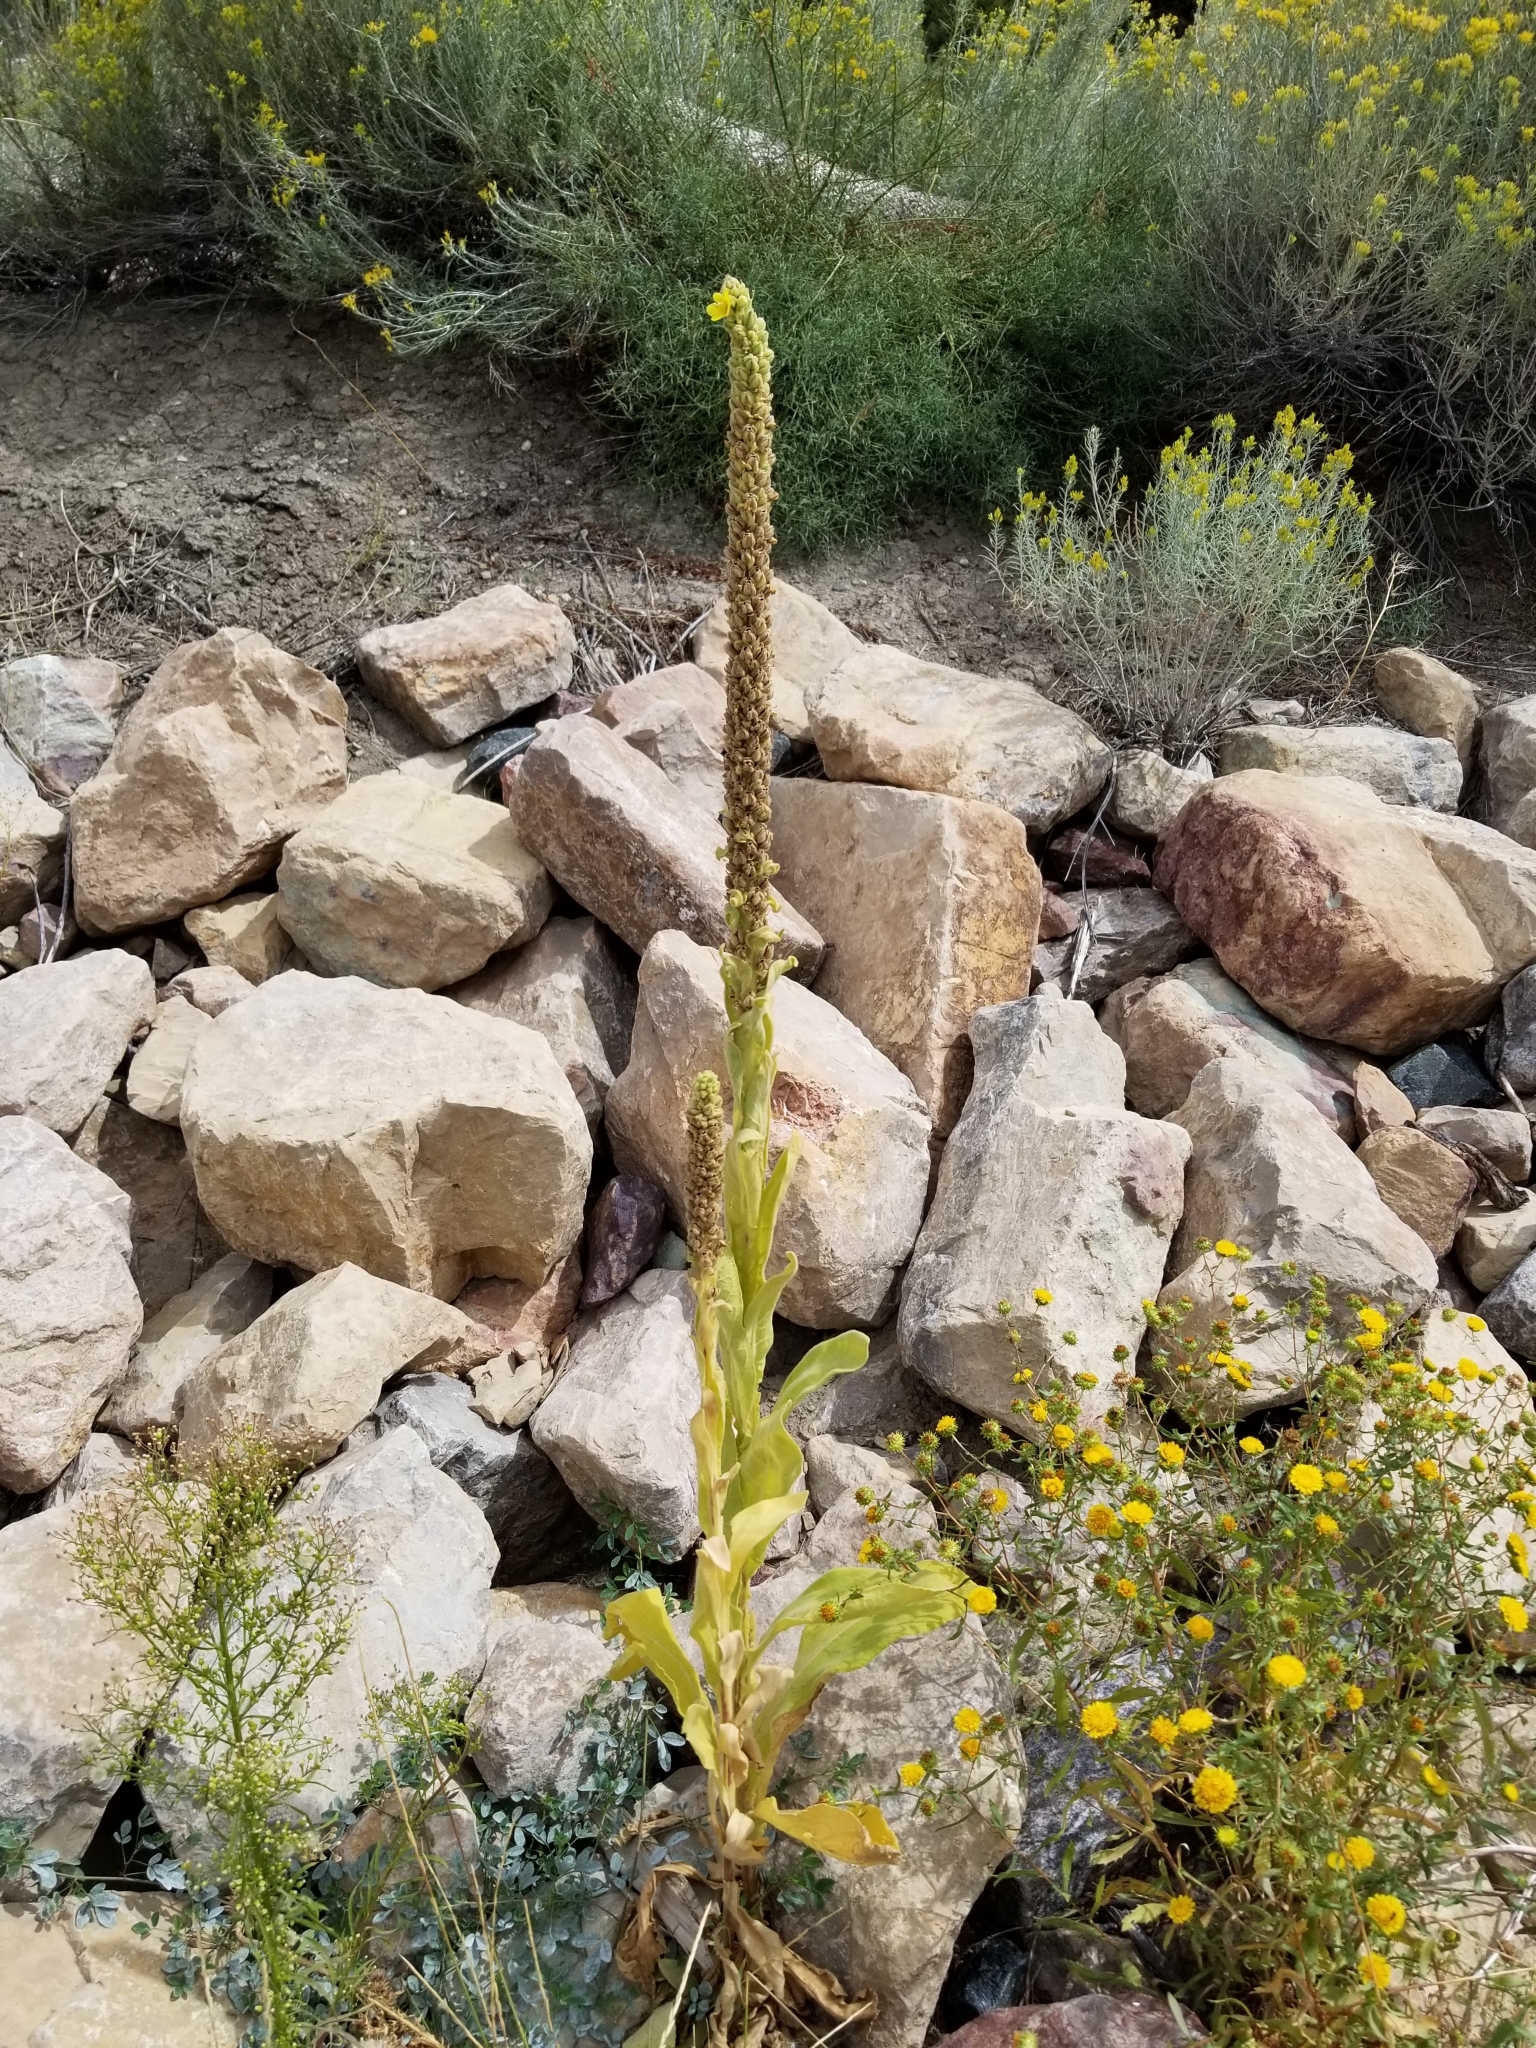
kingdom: Plantae
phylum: Tracheophyta
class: Magnoliopsida
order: Lamiales
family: Scrophulariaceae
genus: Verbascum
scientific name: Verbascum thapsus
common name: Common mullein
